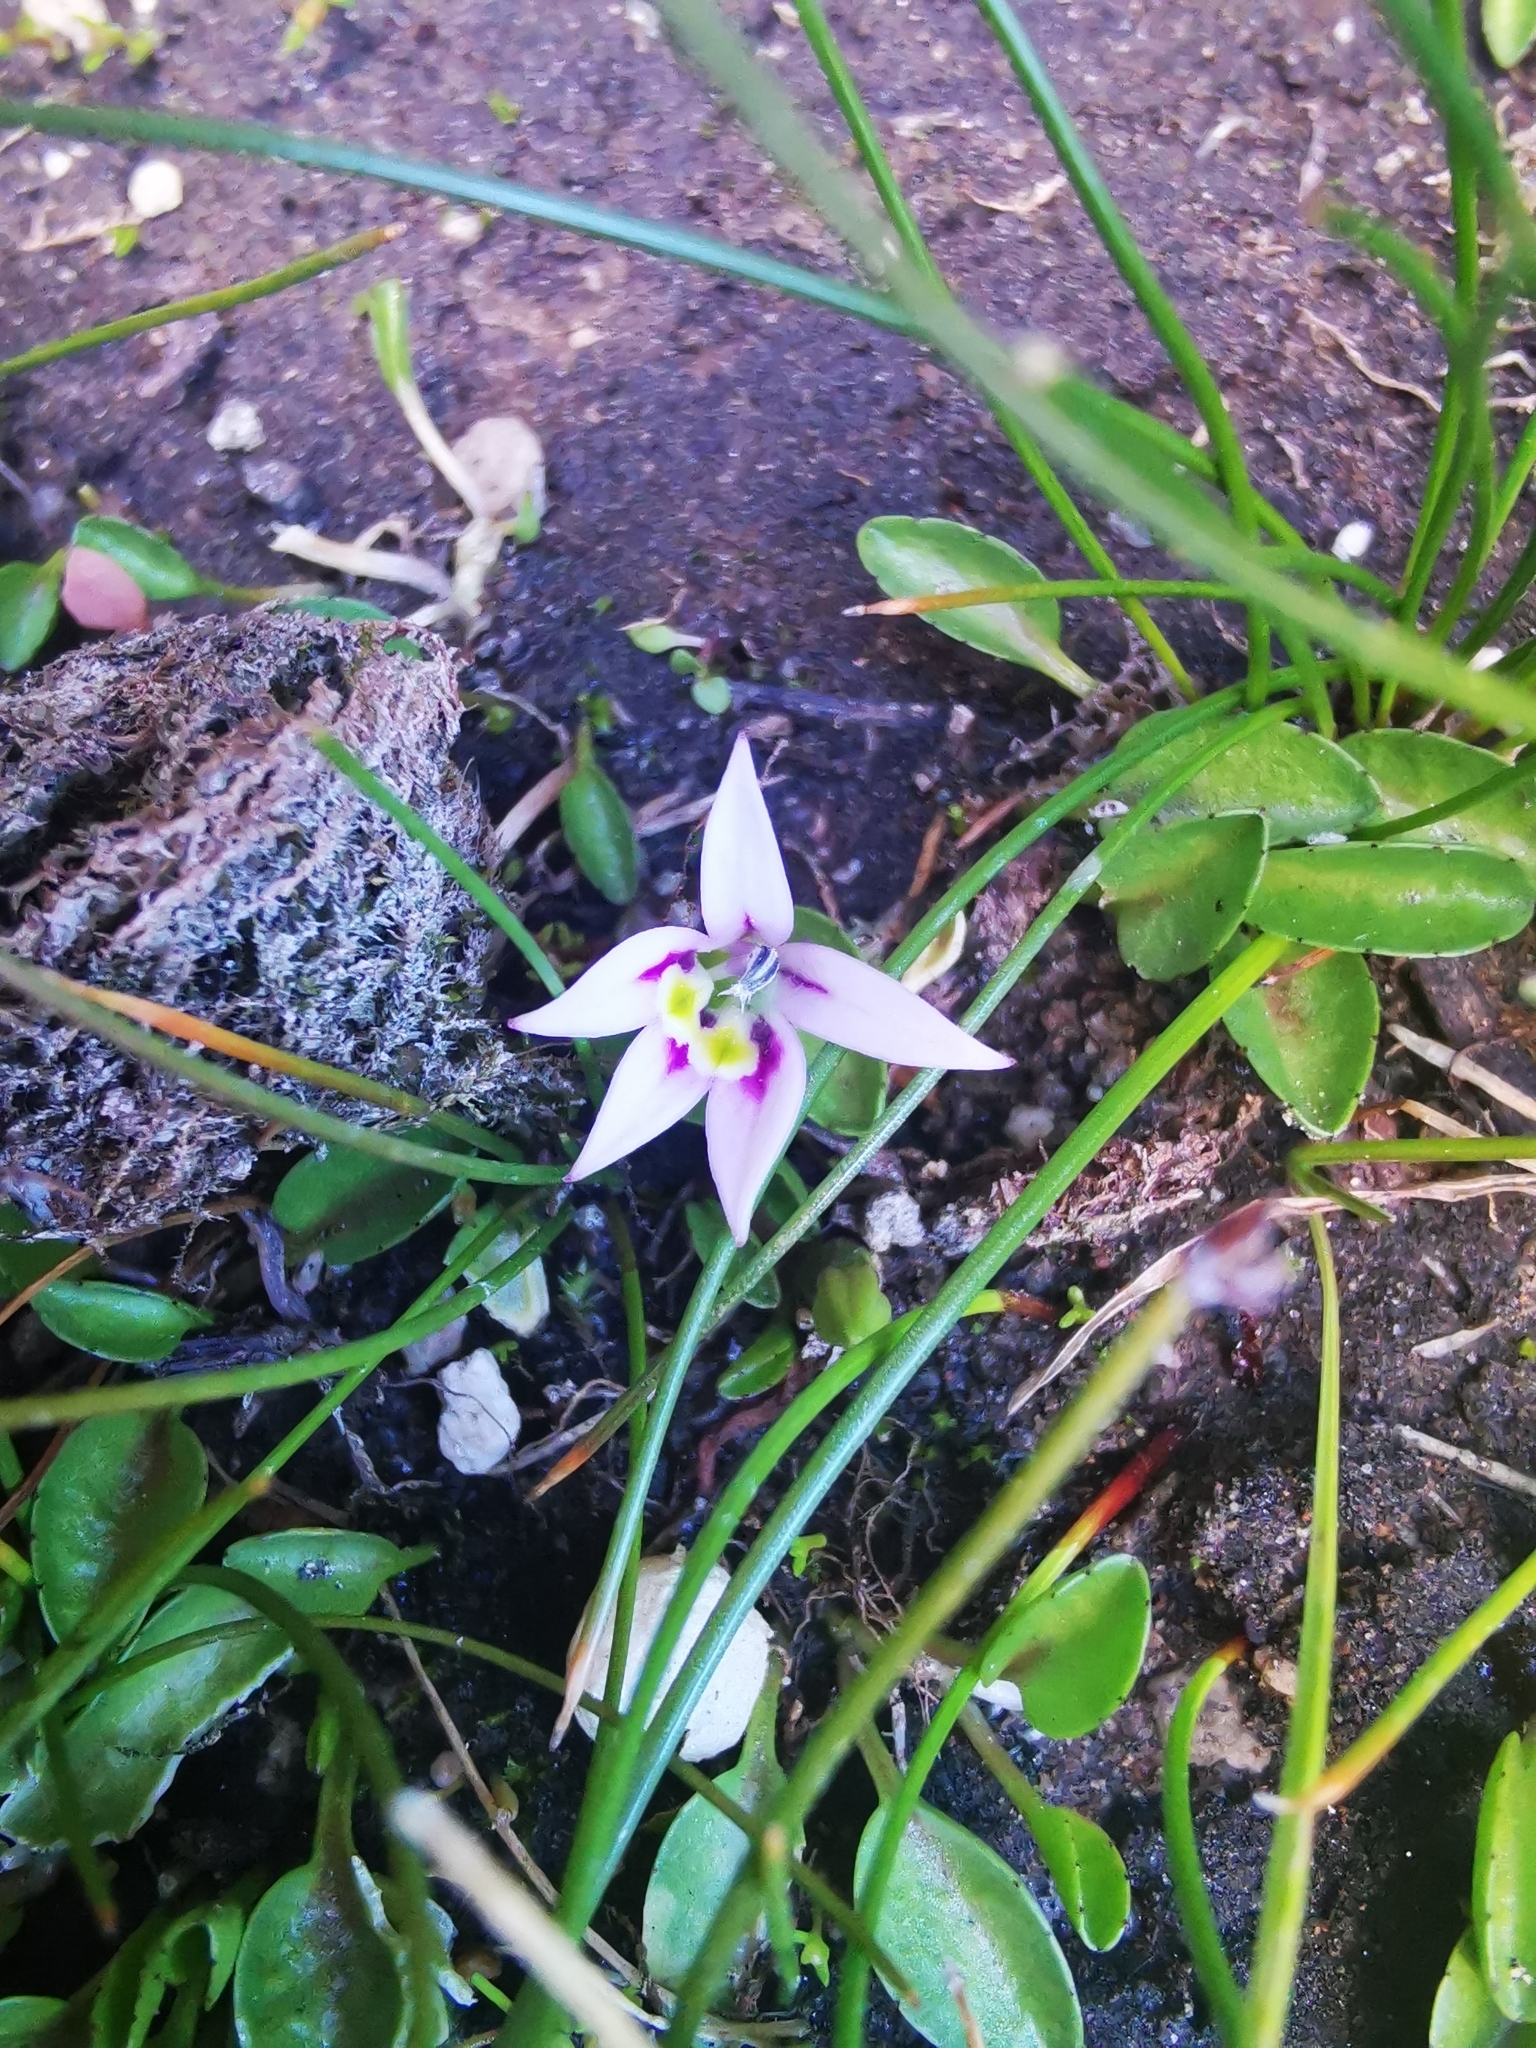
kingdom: Plantae
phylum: Tracheophyta
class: Magnoliopsida
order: Asterales
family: Campanulaceae
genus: Lobelia
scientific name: Lobelia oligophylla
